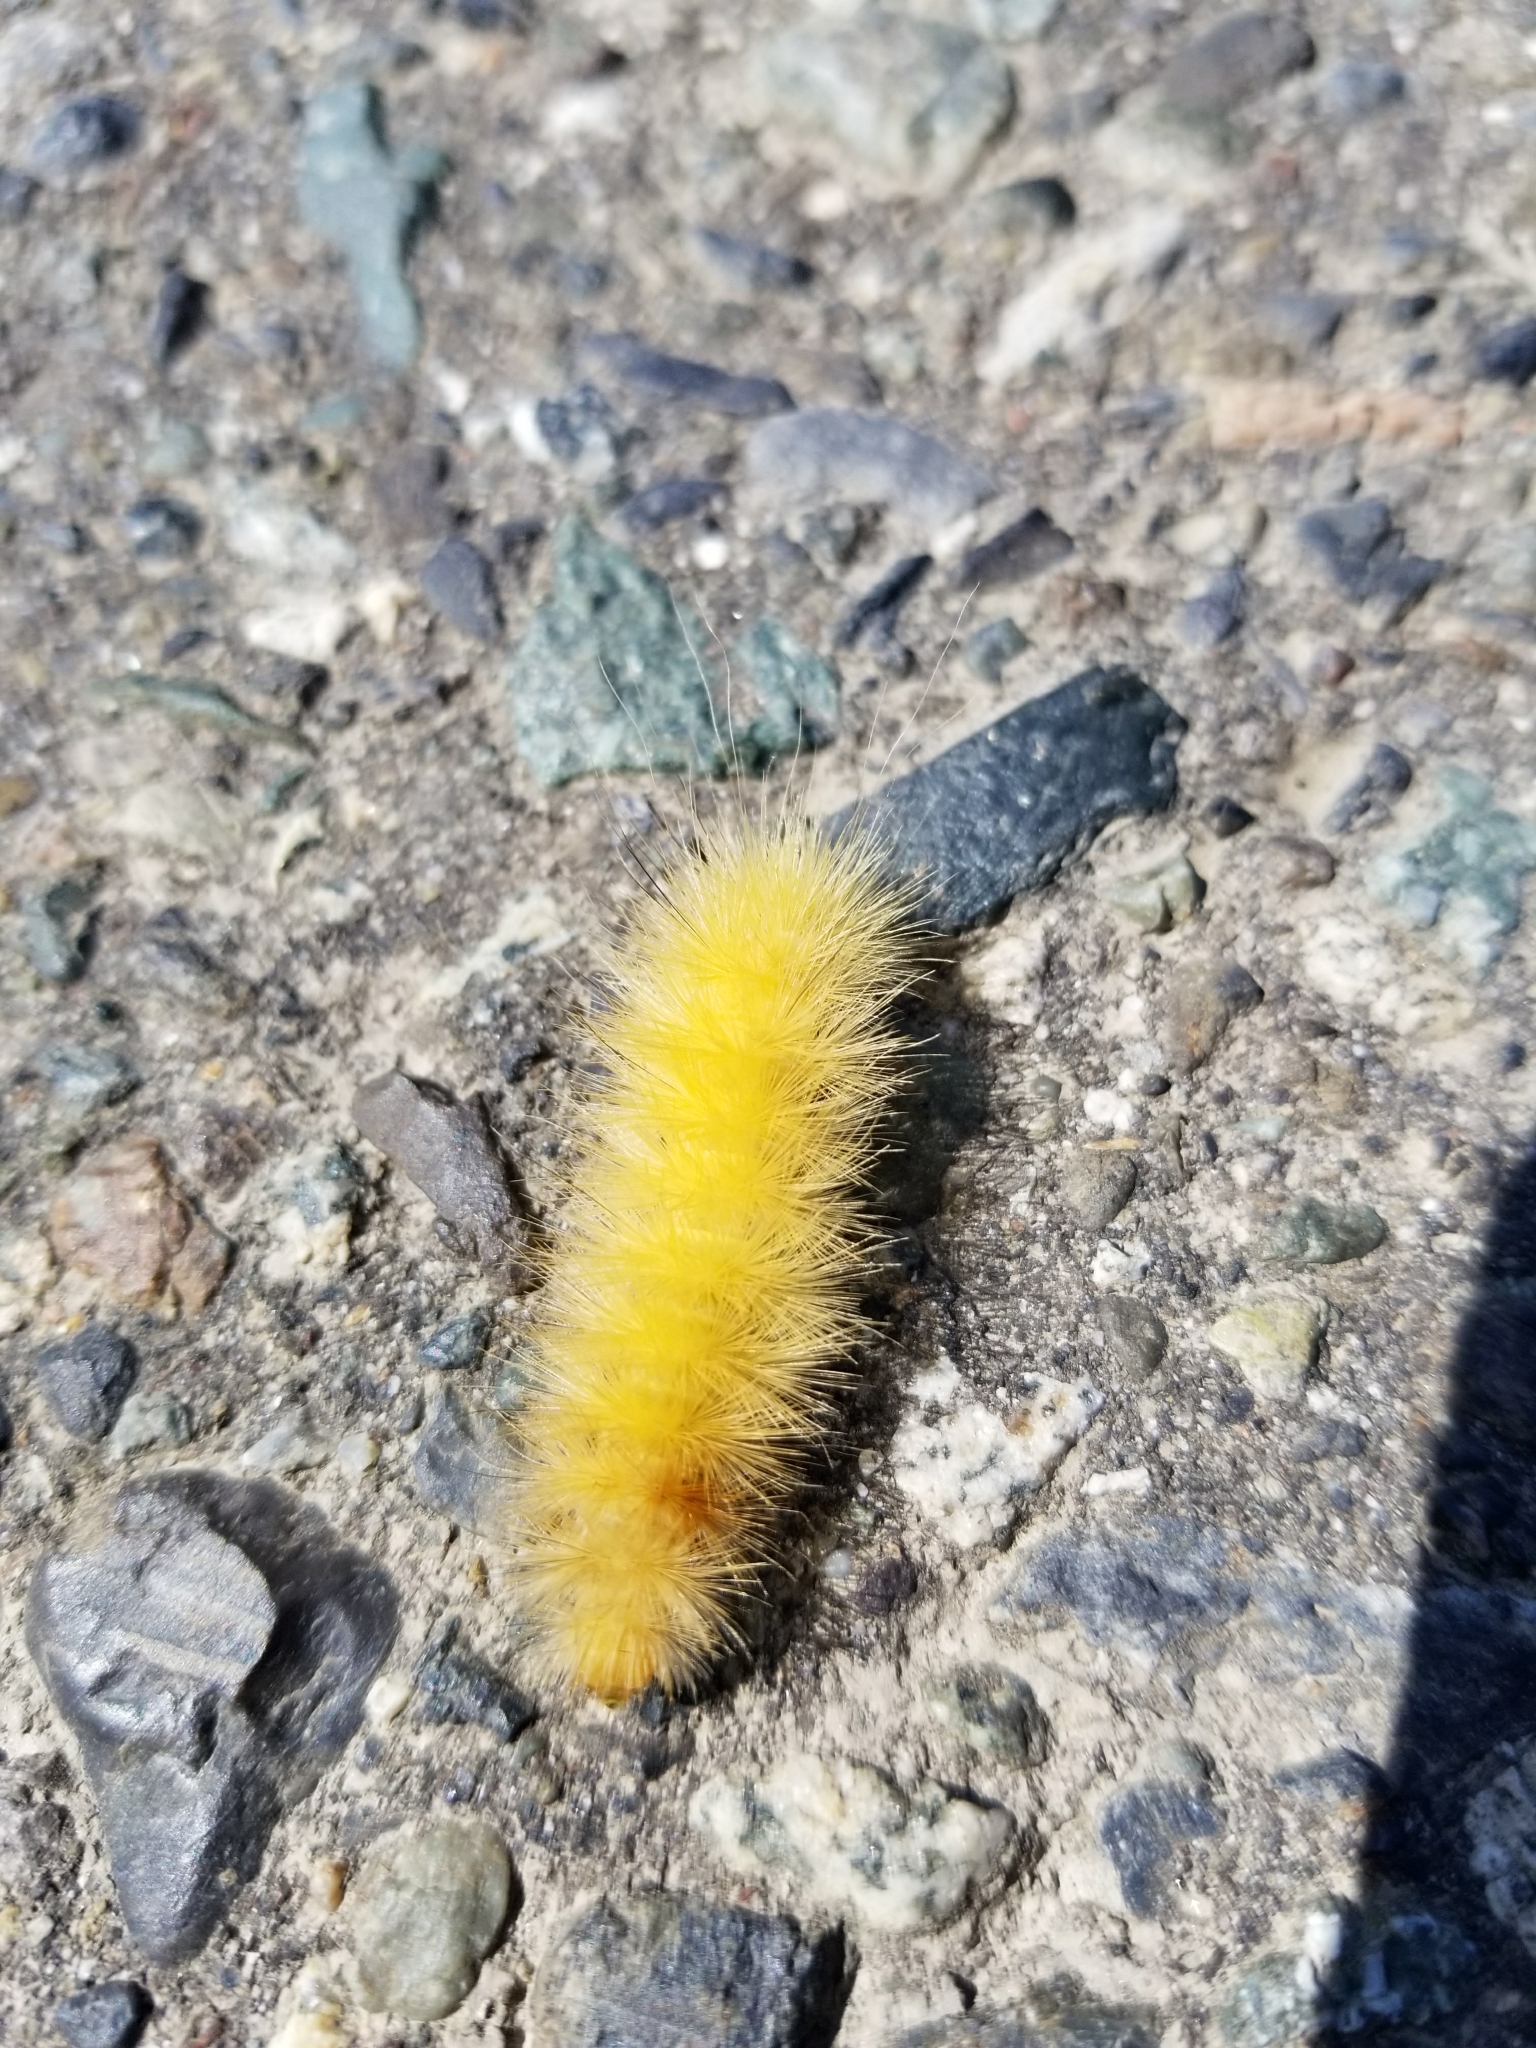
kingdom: Animalia
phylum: Arthropoda
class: Insecta
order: Lepidoptera
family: Erebidae
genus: Spilosoma
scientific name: Spilosoma virginica
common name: Virginia tiger moth
